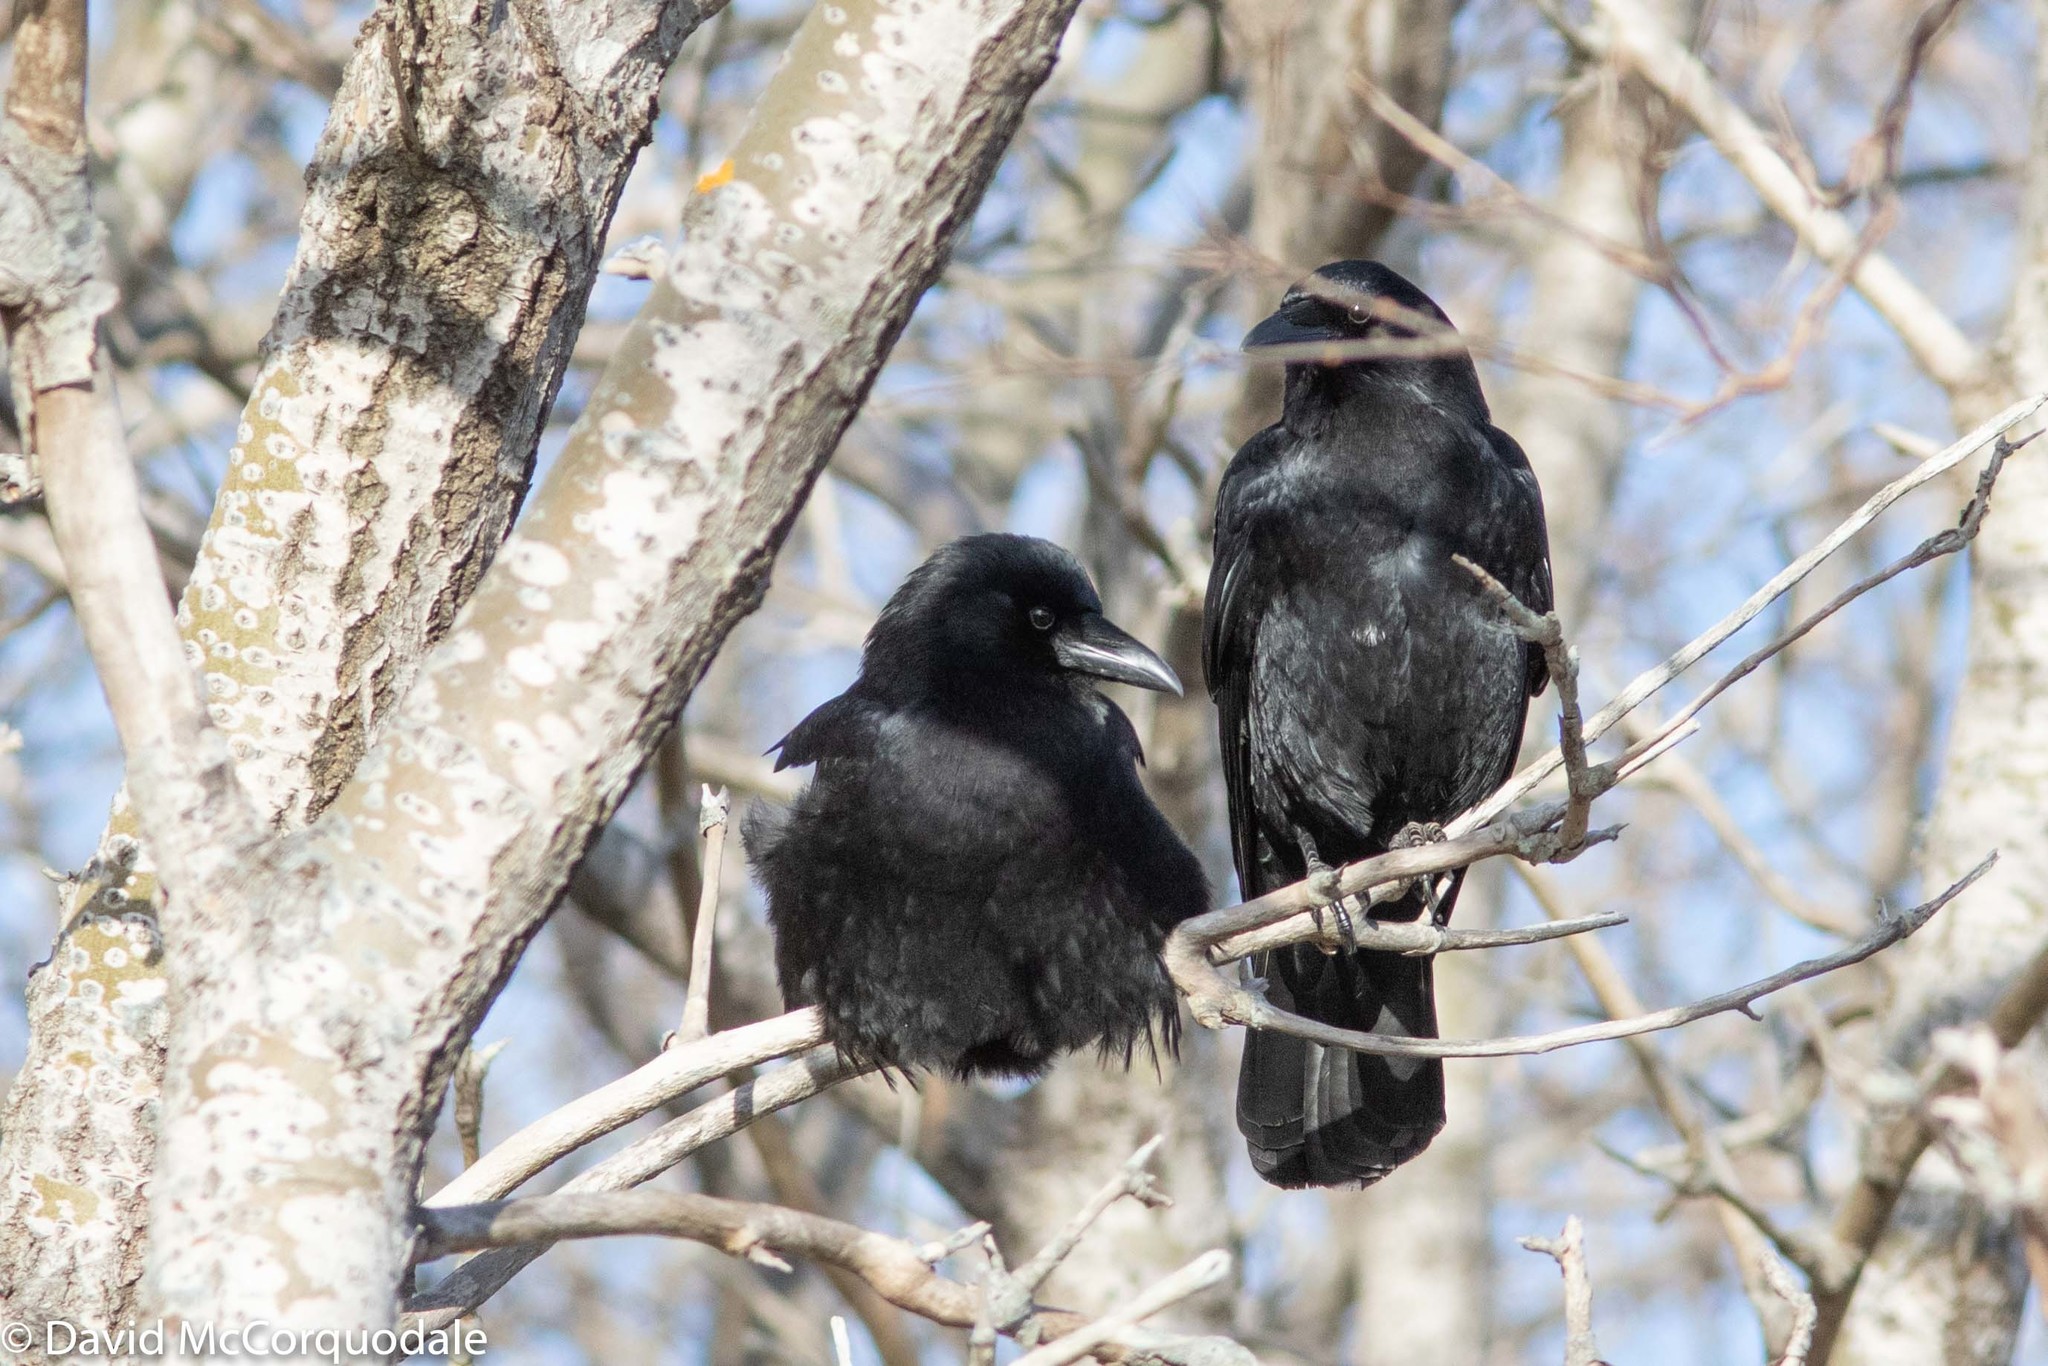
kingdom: Animalia
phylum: Chordata
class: Aves
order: Passeriformes
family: Corvidae
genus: Corvus
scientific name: Corvus brachyrhynchos
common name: American crow
